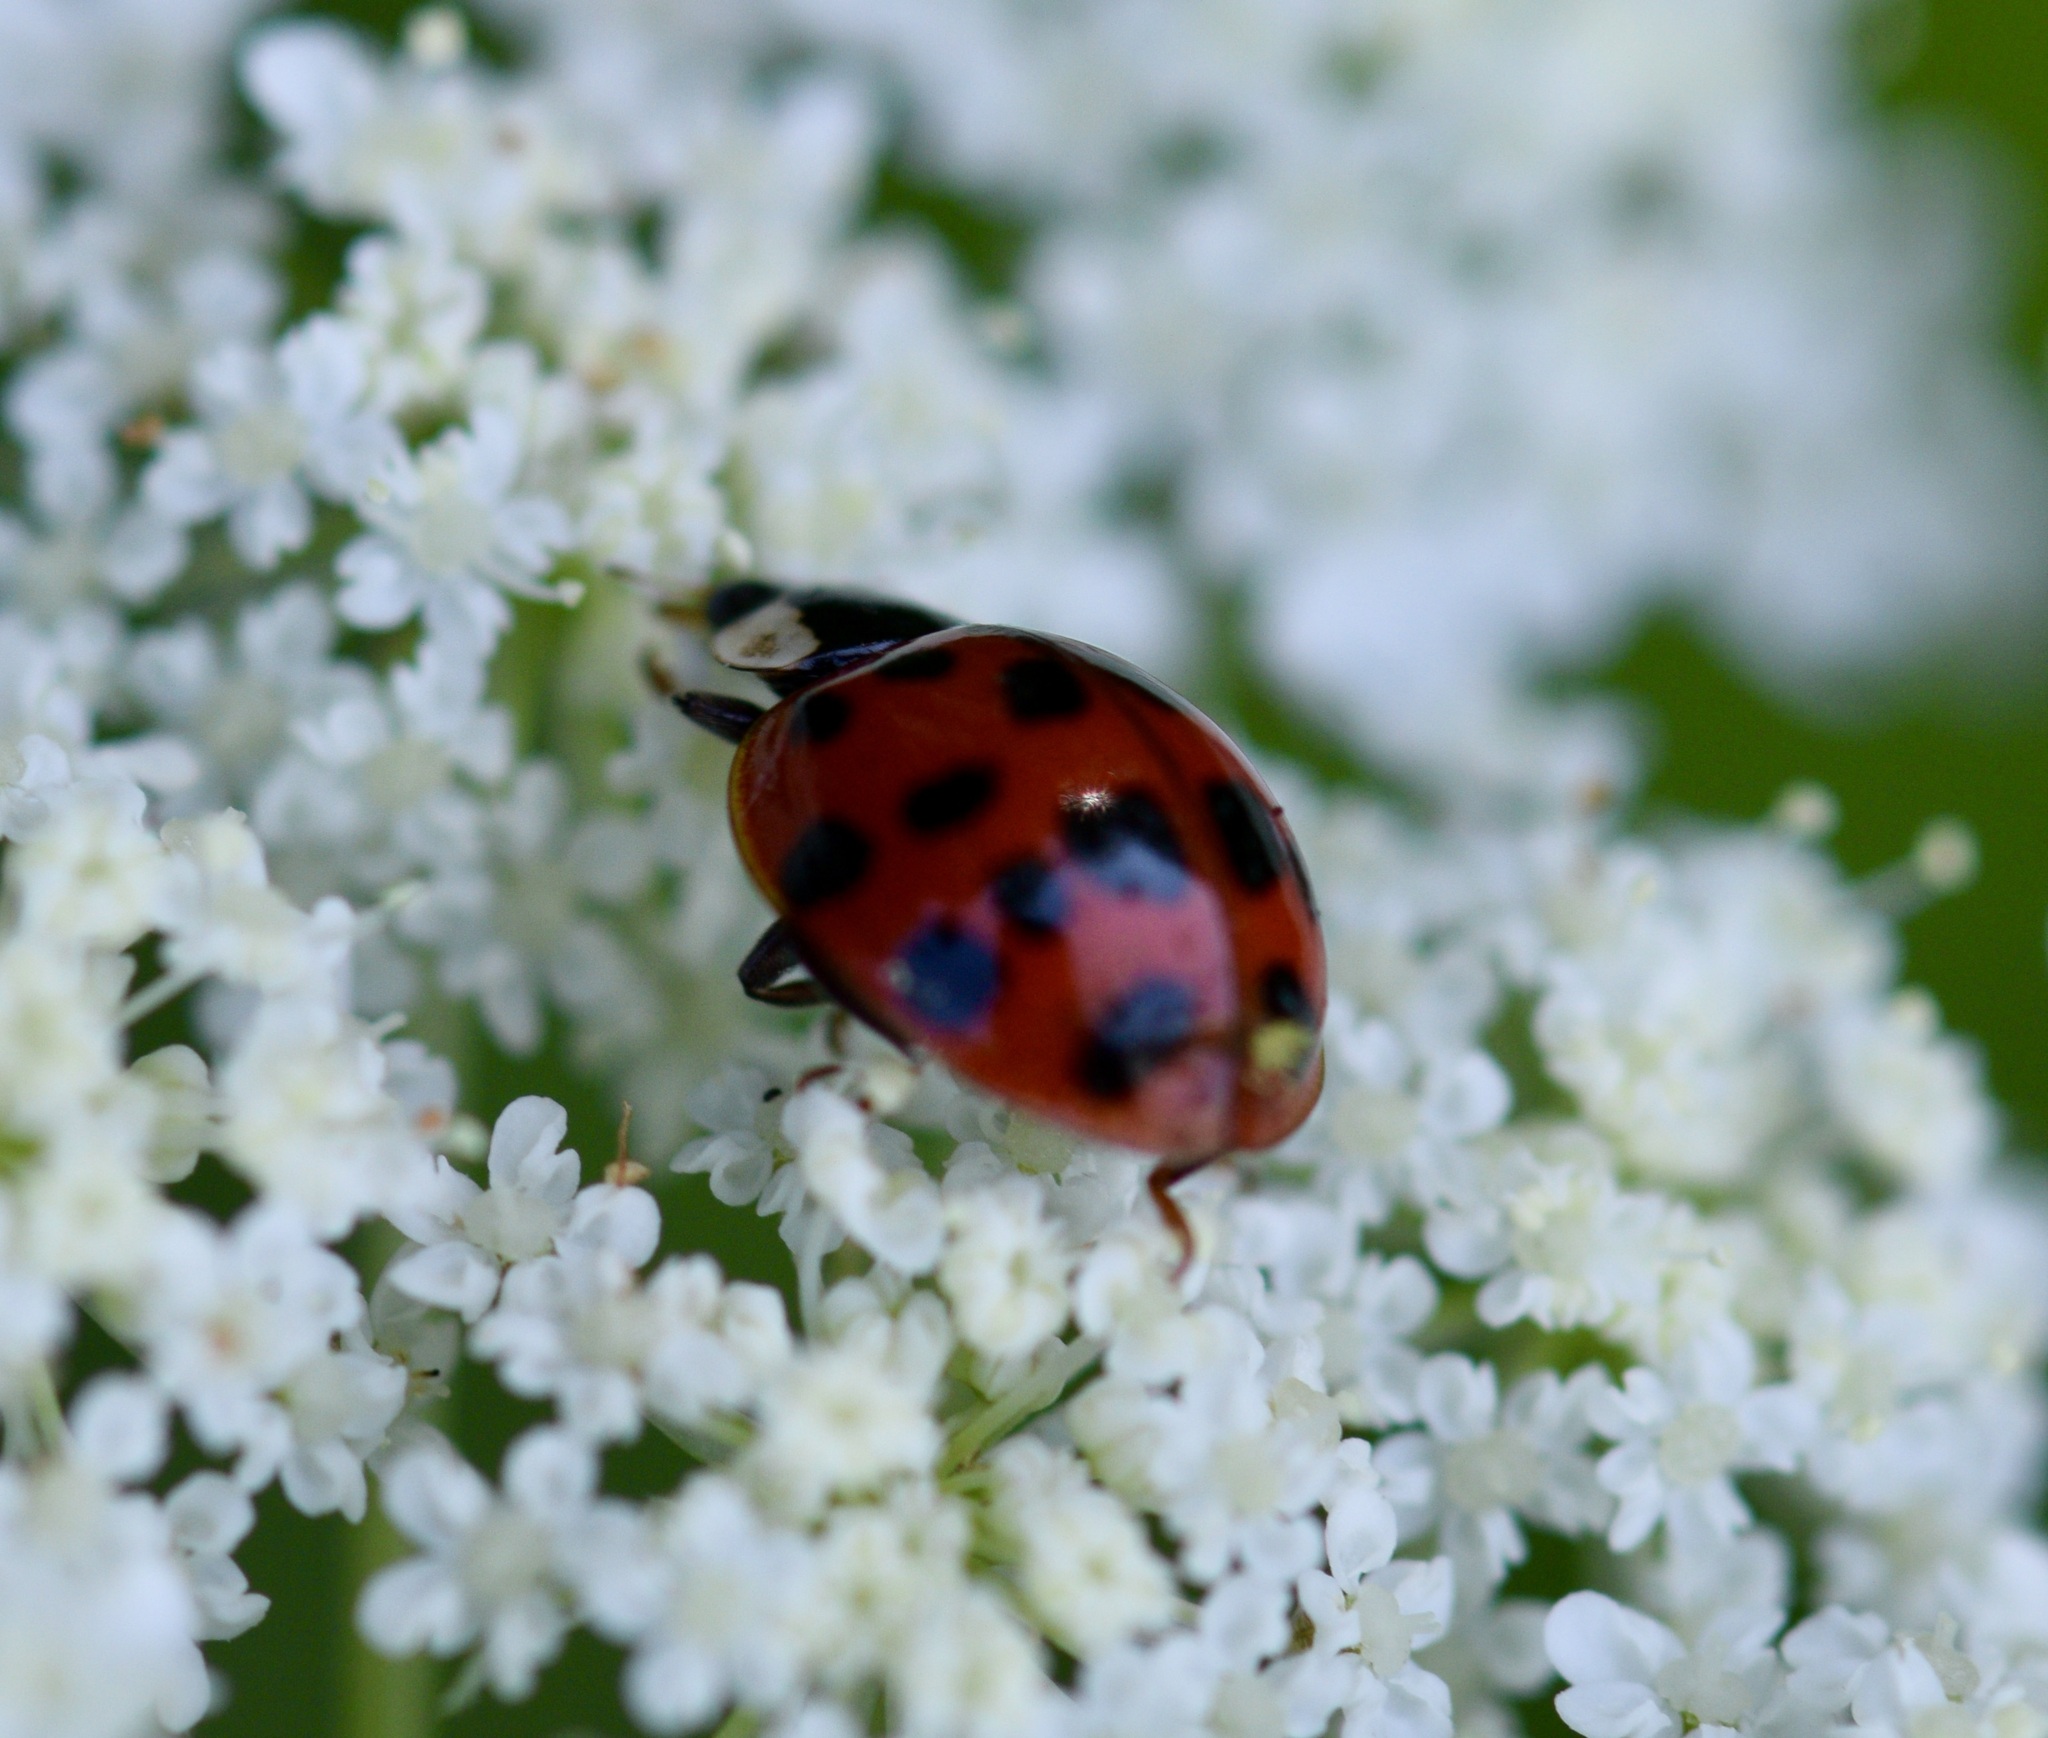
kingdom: Animalia
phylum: Arthropoda
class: Insecta
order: Coleoptera
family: Coccinellidae
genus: Harmonia
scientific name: Harmonia axyridis
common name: Harlequin ladybird
